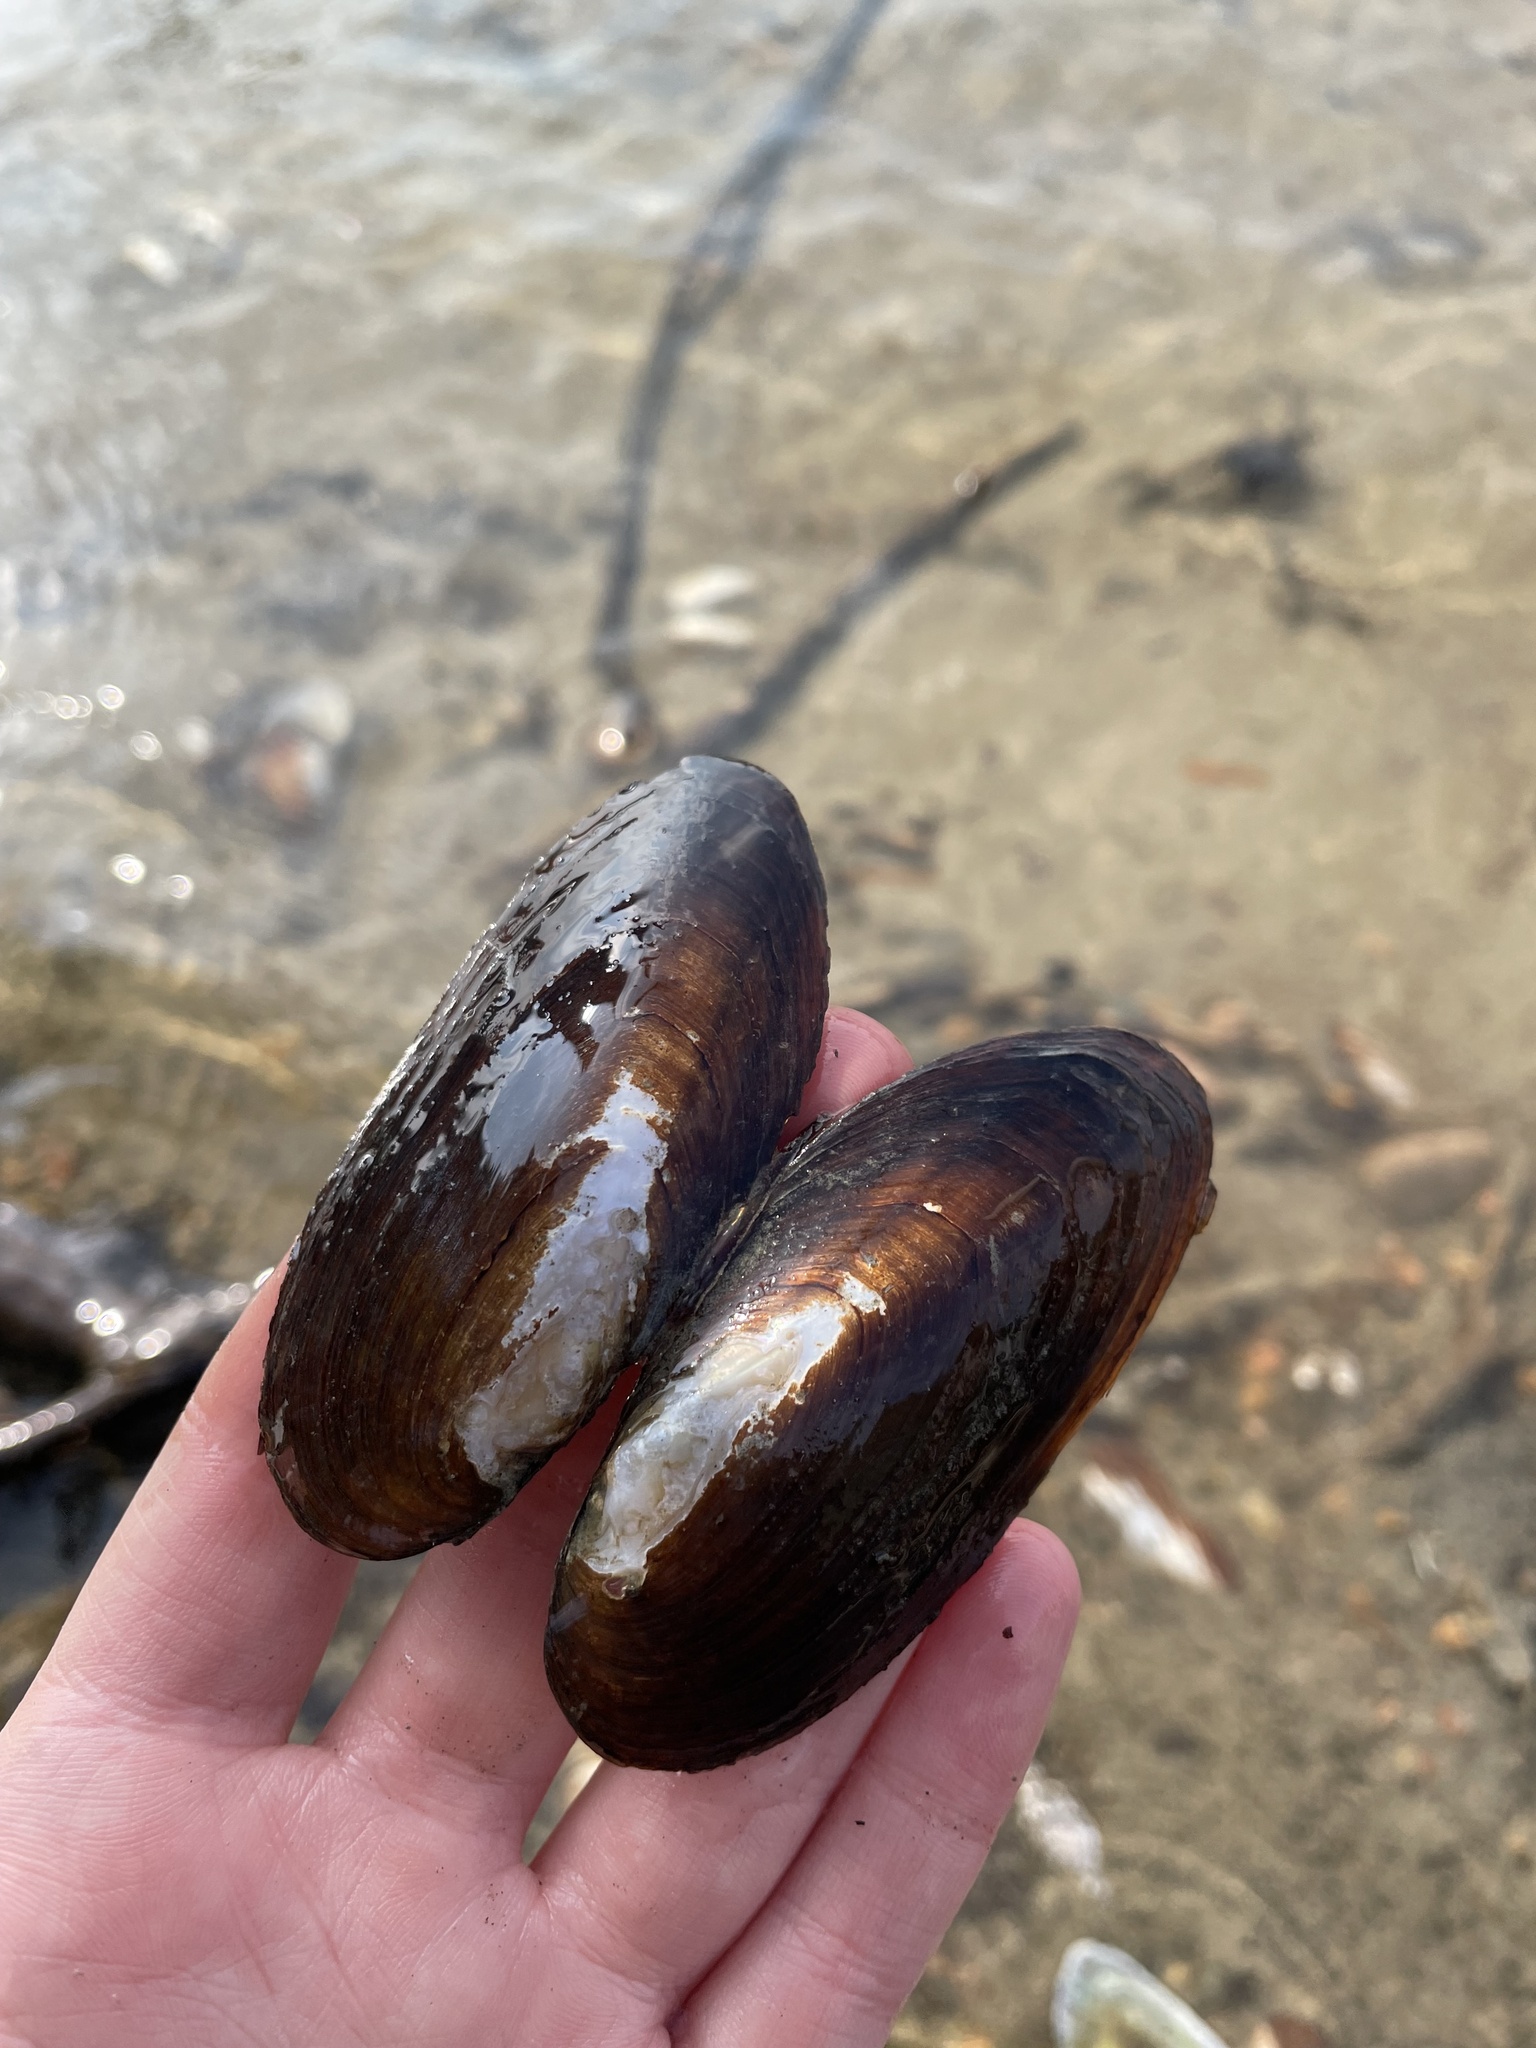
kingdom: Animalia
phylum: Mollusca
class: Bivalvia
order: Unionida
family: Unionidae
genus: Elliptio
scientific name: Elliptio complanata
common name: Eastern elliptio
